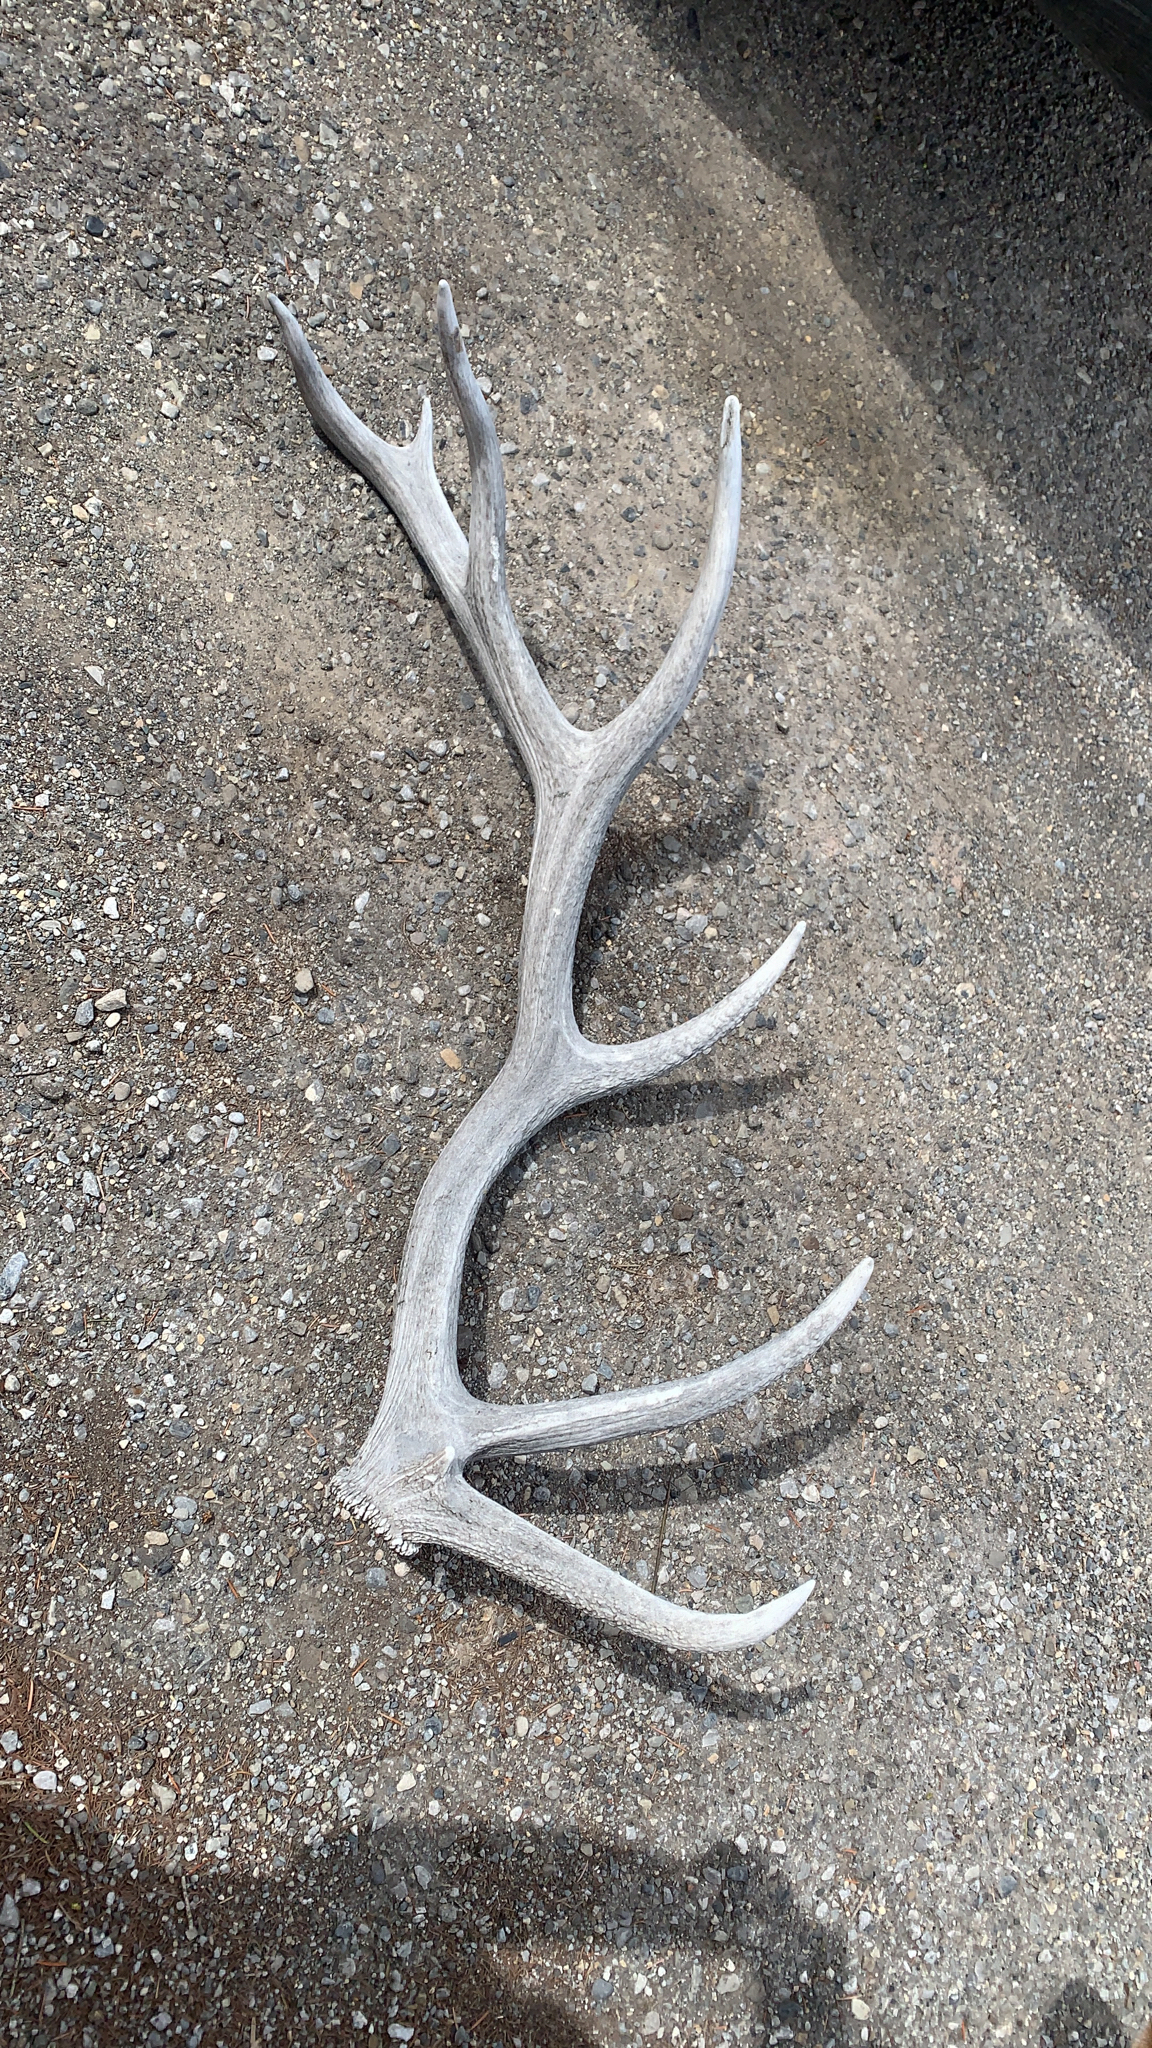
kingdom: Animalia
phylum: Chordata
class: Mammalia
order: Artiodactyla
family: Cervidae
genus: Cervus
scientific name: Cervus elaphus
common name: Red deer
